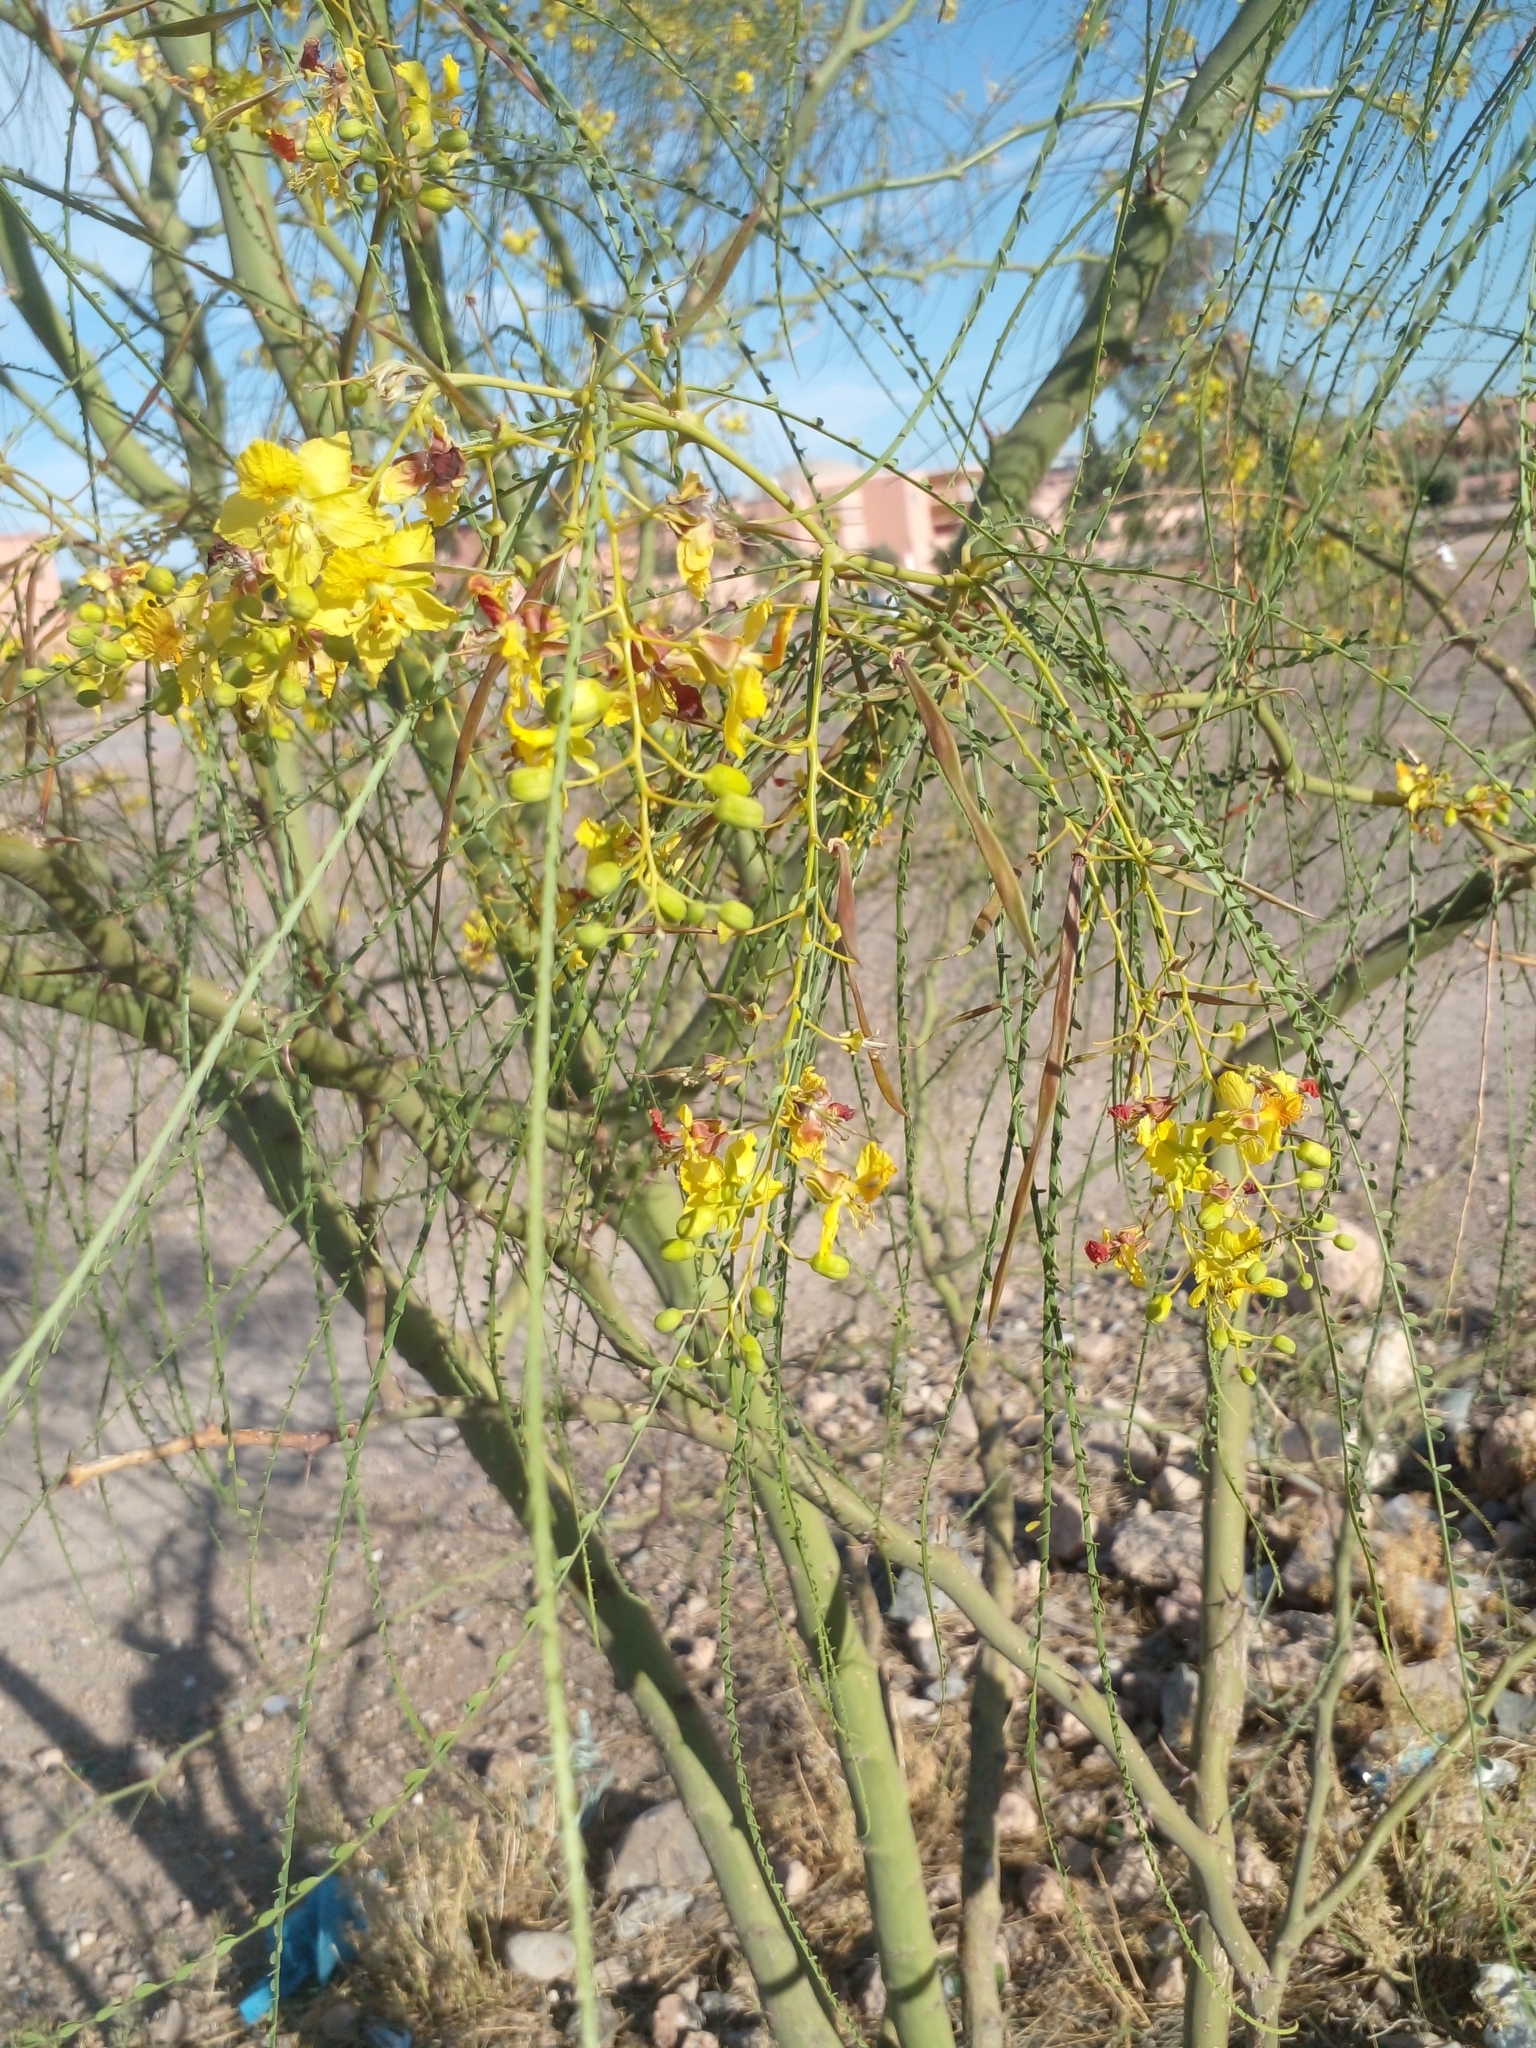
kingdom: Plantae
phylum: Tracheophyta
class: Magnoliopsida
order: Fabales
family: Fabaceae
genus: Parkinsonia
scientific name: Parkinsonia aculeata
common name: Jerusalem thorn
